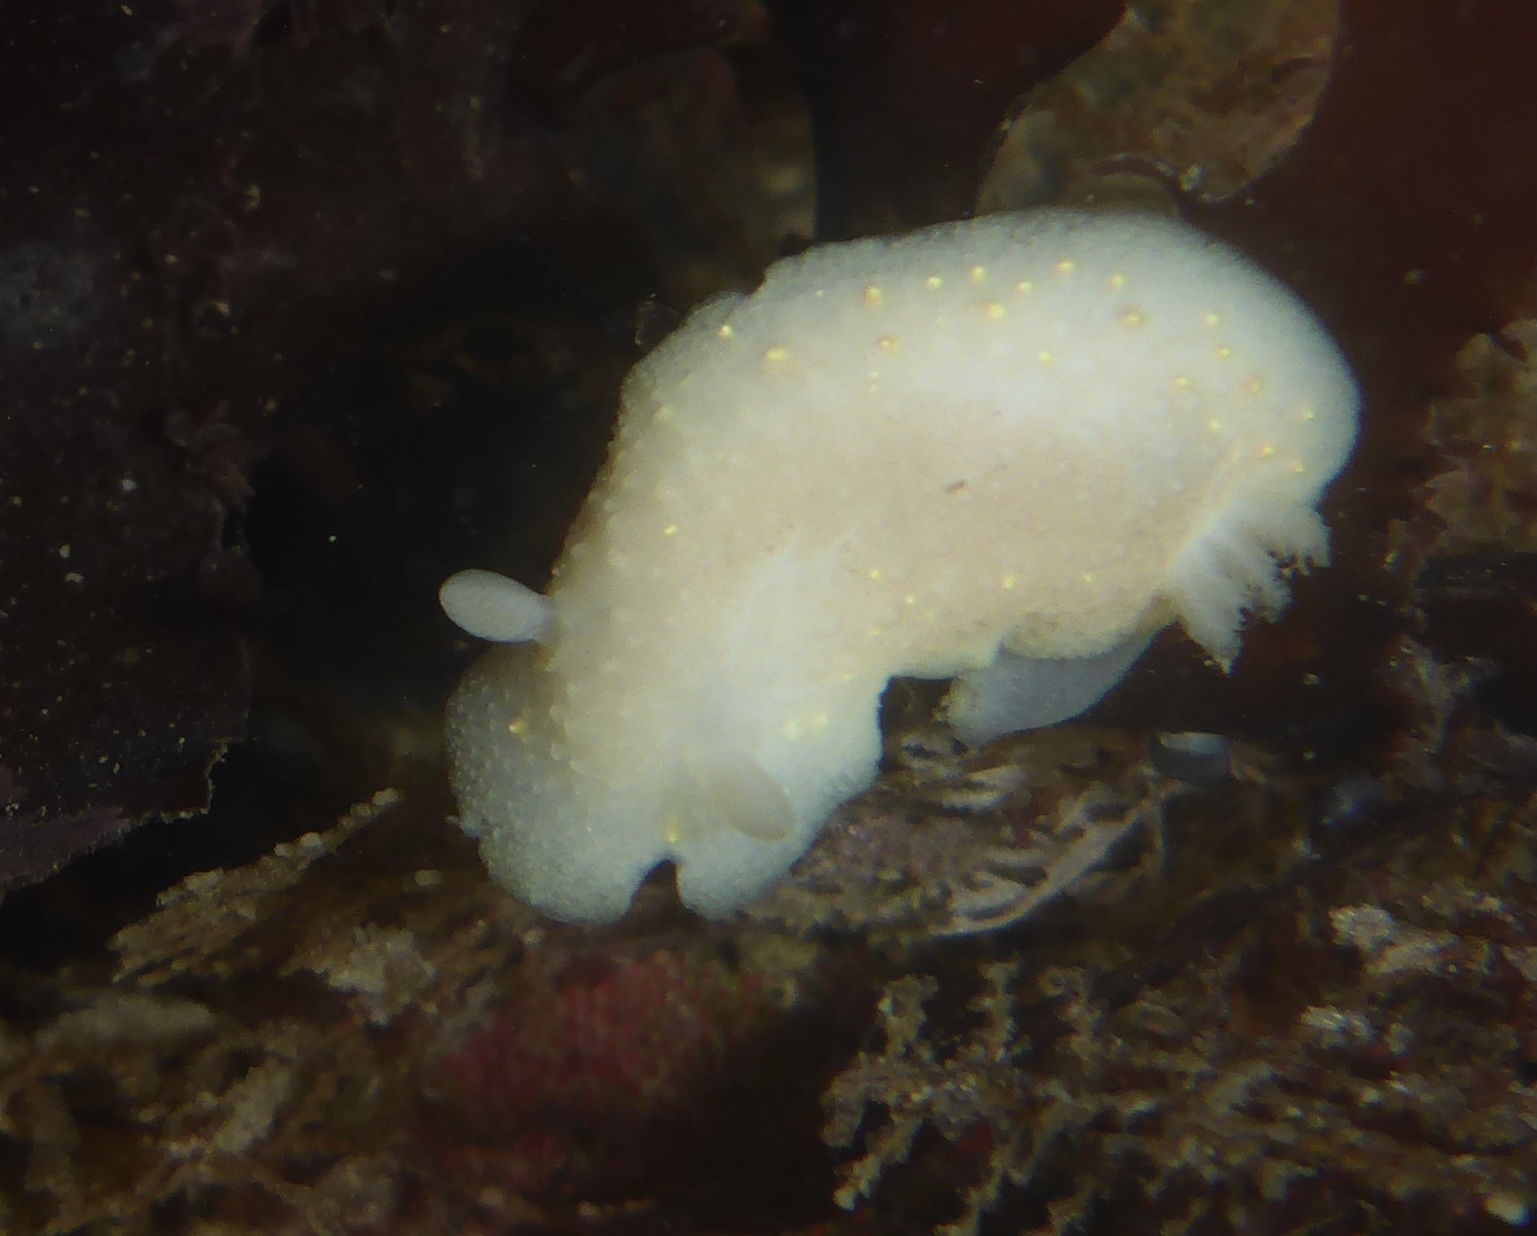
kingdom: Animalia
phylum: Mollusca
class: Gastropoda
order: Nudibranchia
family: Cadlinidae
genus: Cadlina
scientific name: Cadlina modesta
